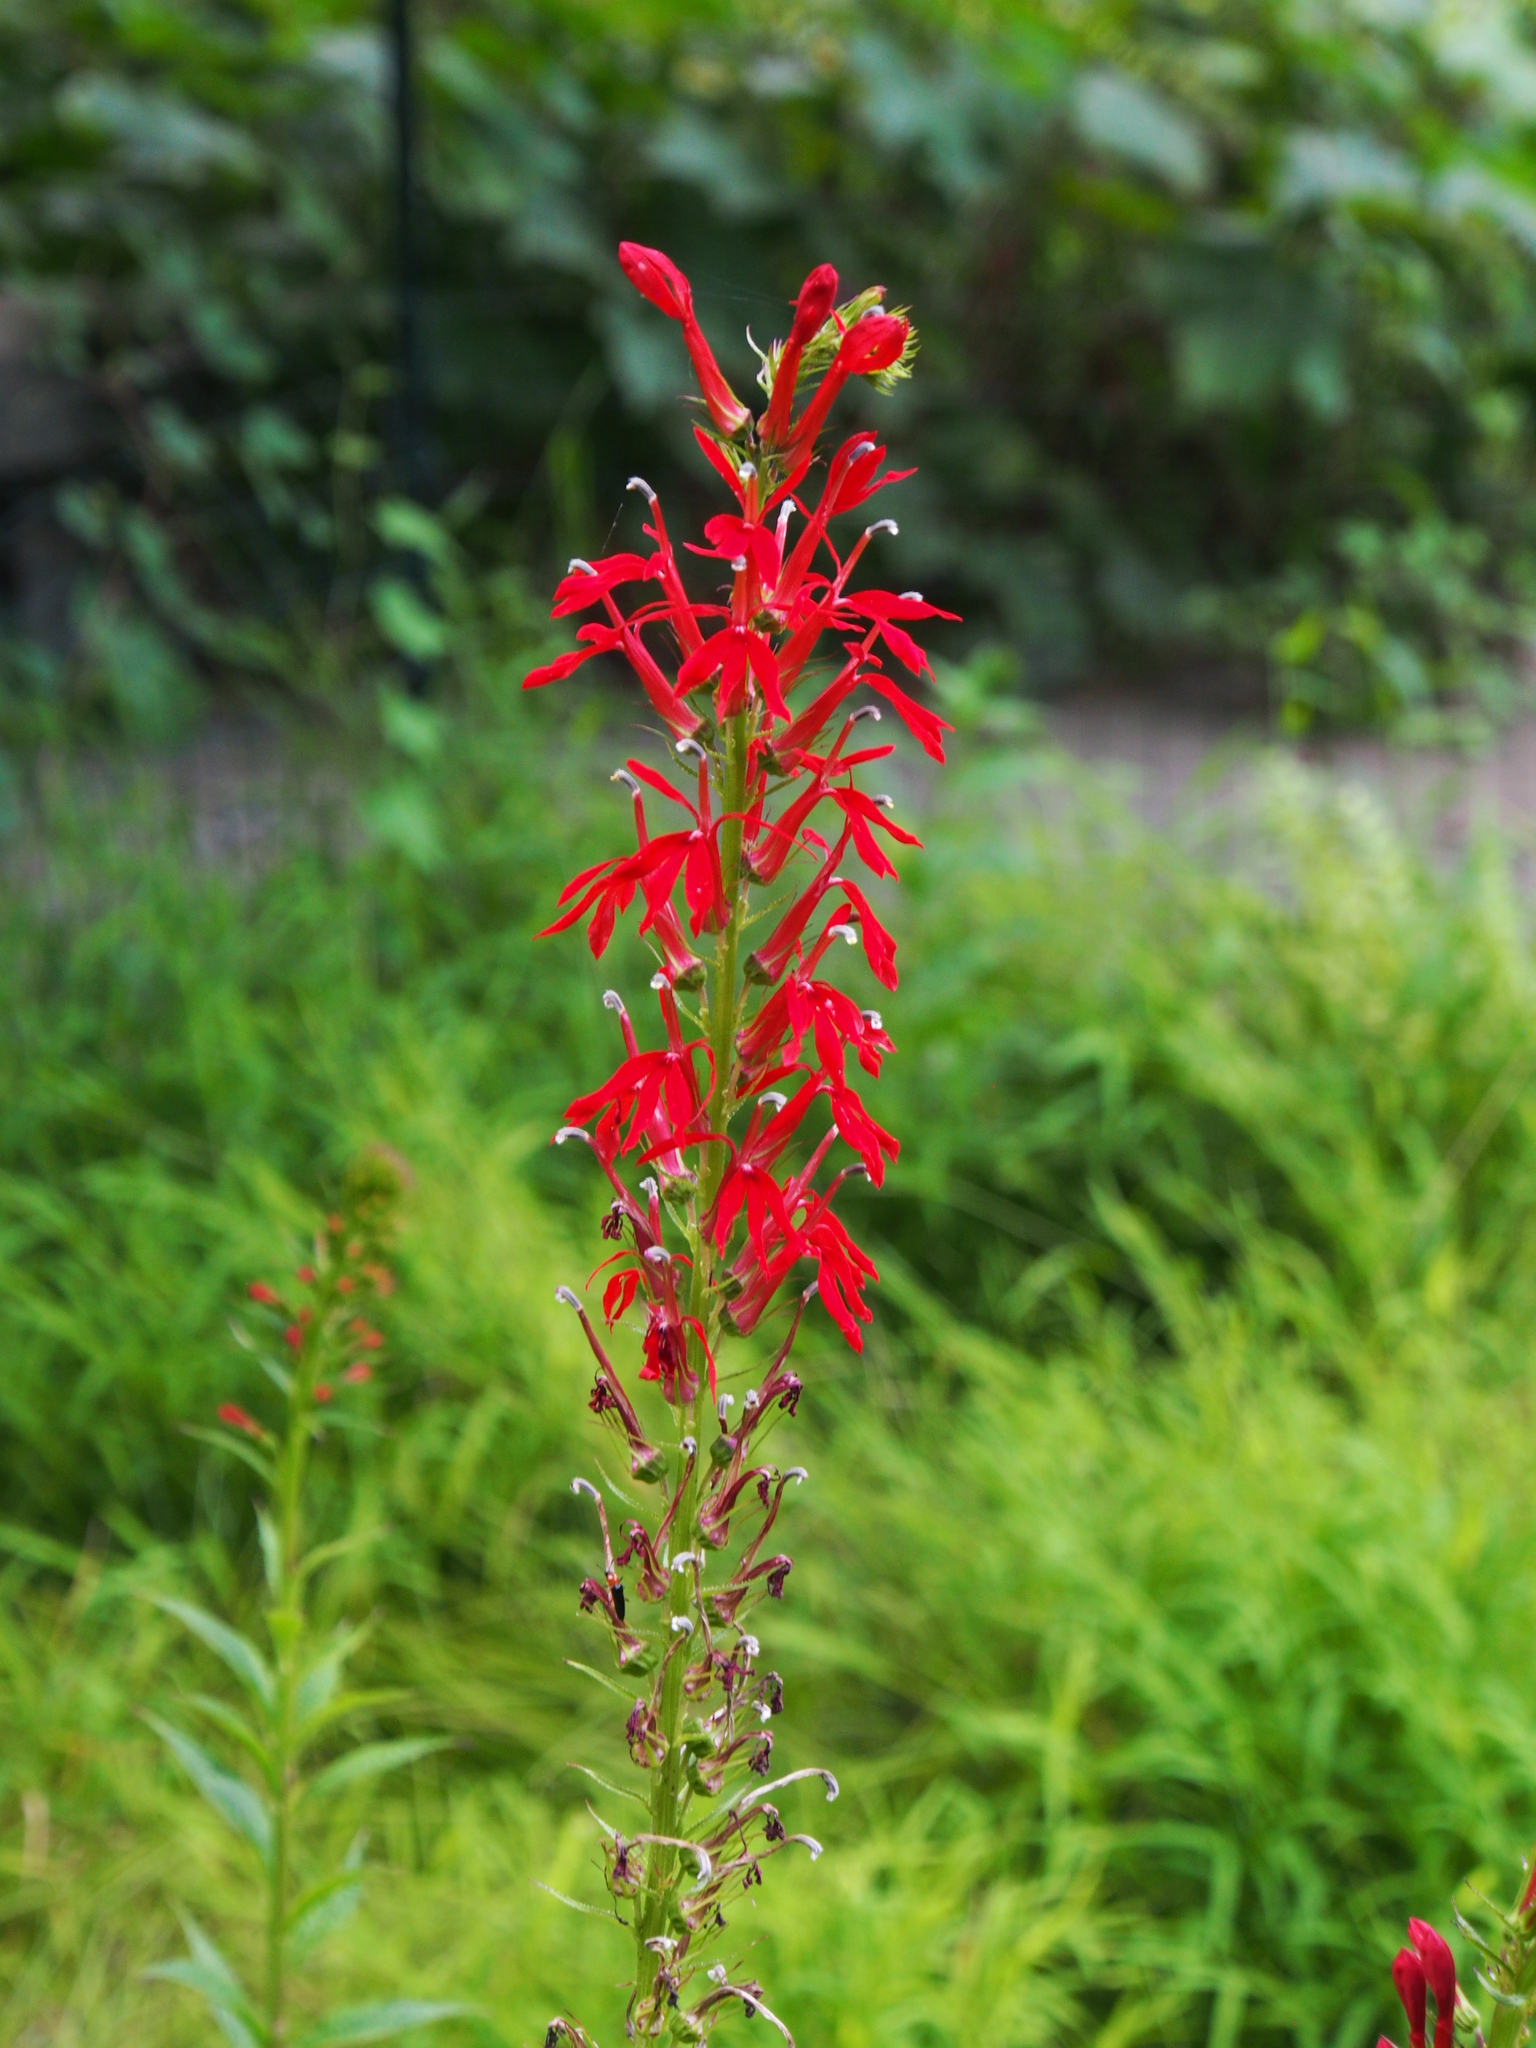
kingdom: Plantae
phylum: Tracheophyta
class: Magnoliopsida
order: Asterales
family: Campanulaceae
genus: Lobelia
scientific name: Lobelia cardinalis
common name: Cardinal flower
